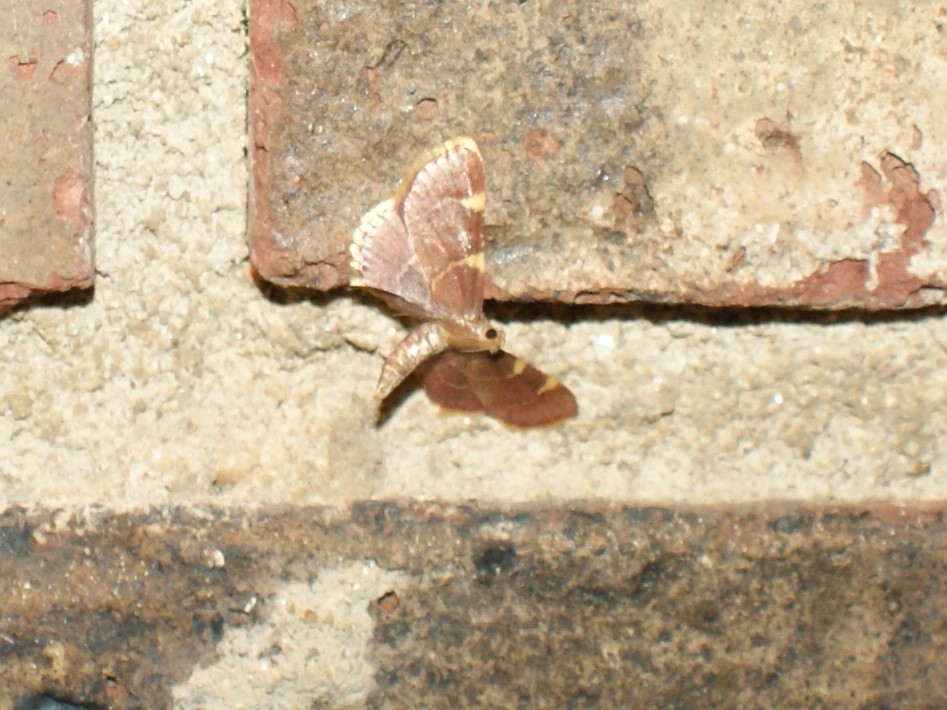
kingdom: Animalia
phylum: Arthropoda
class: Insecta
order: Lepidoptera
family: Pyralidae
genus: Hypsopygia
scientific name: Hypsopygia olinalis
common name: Yellow-fringed dolichomia moth
